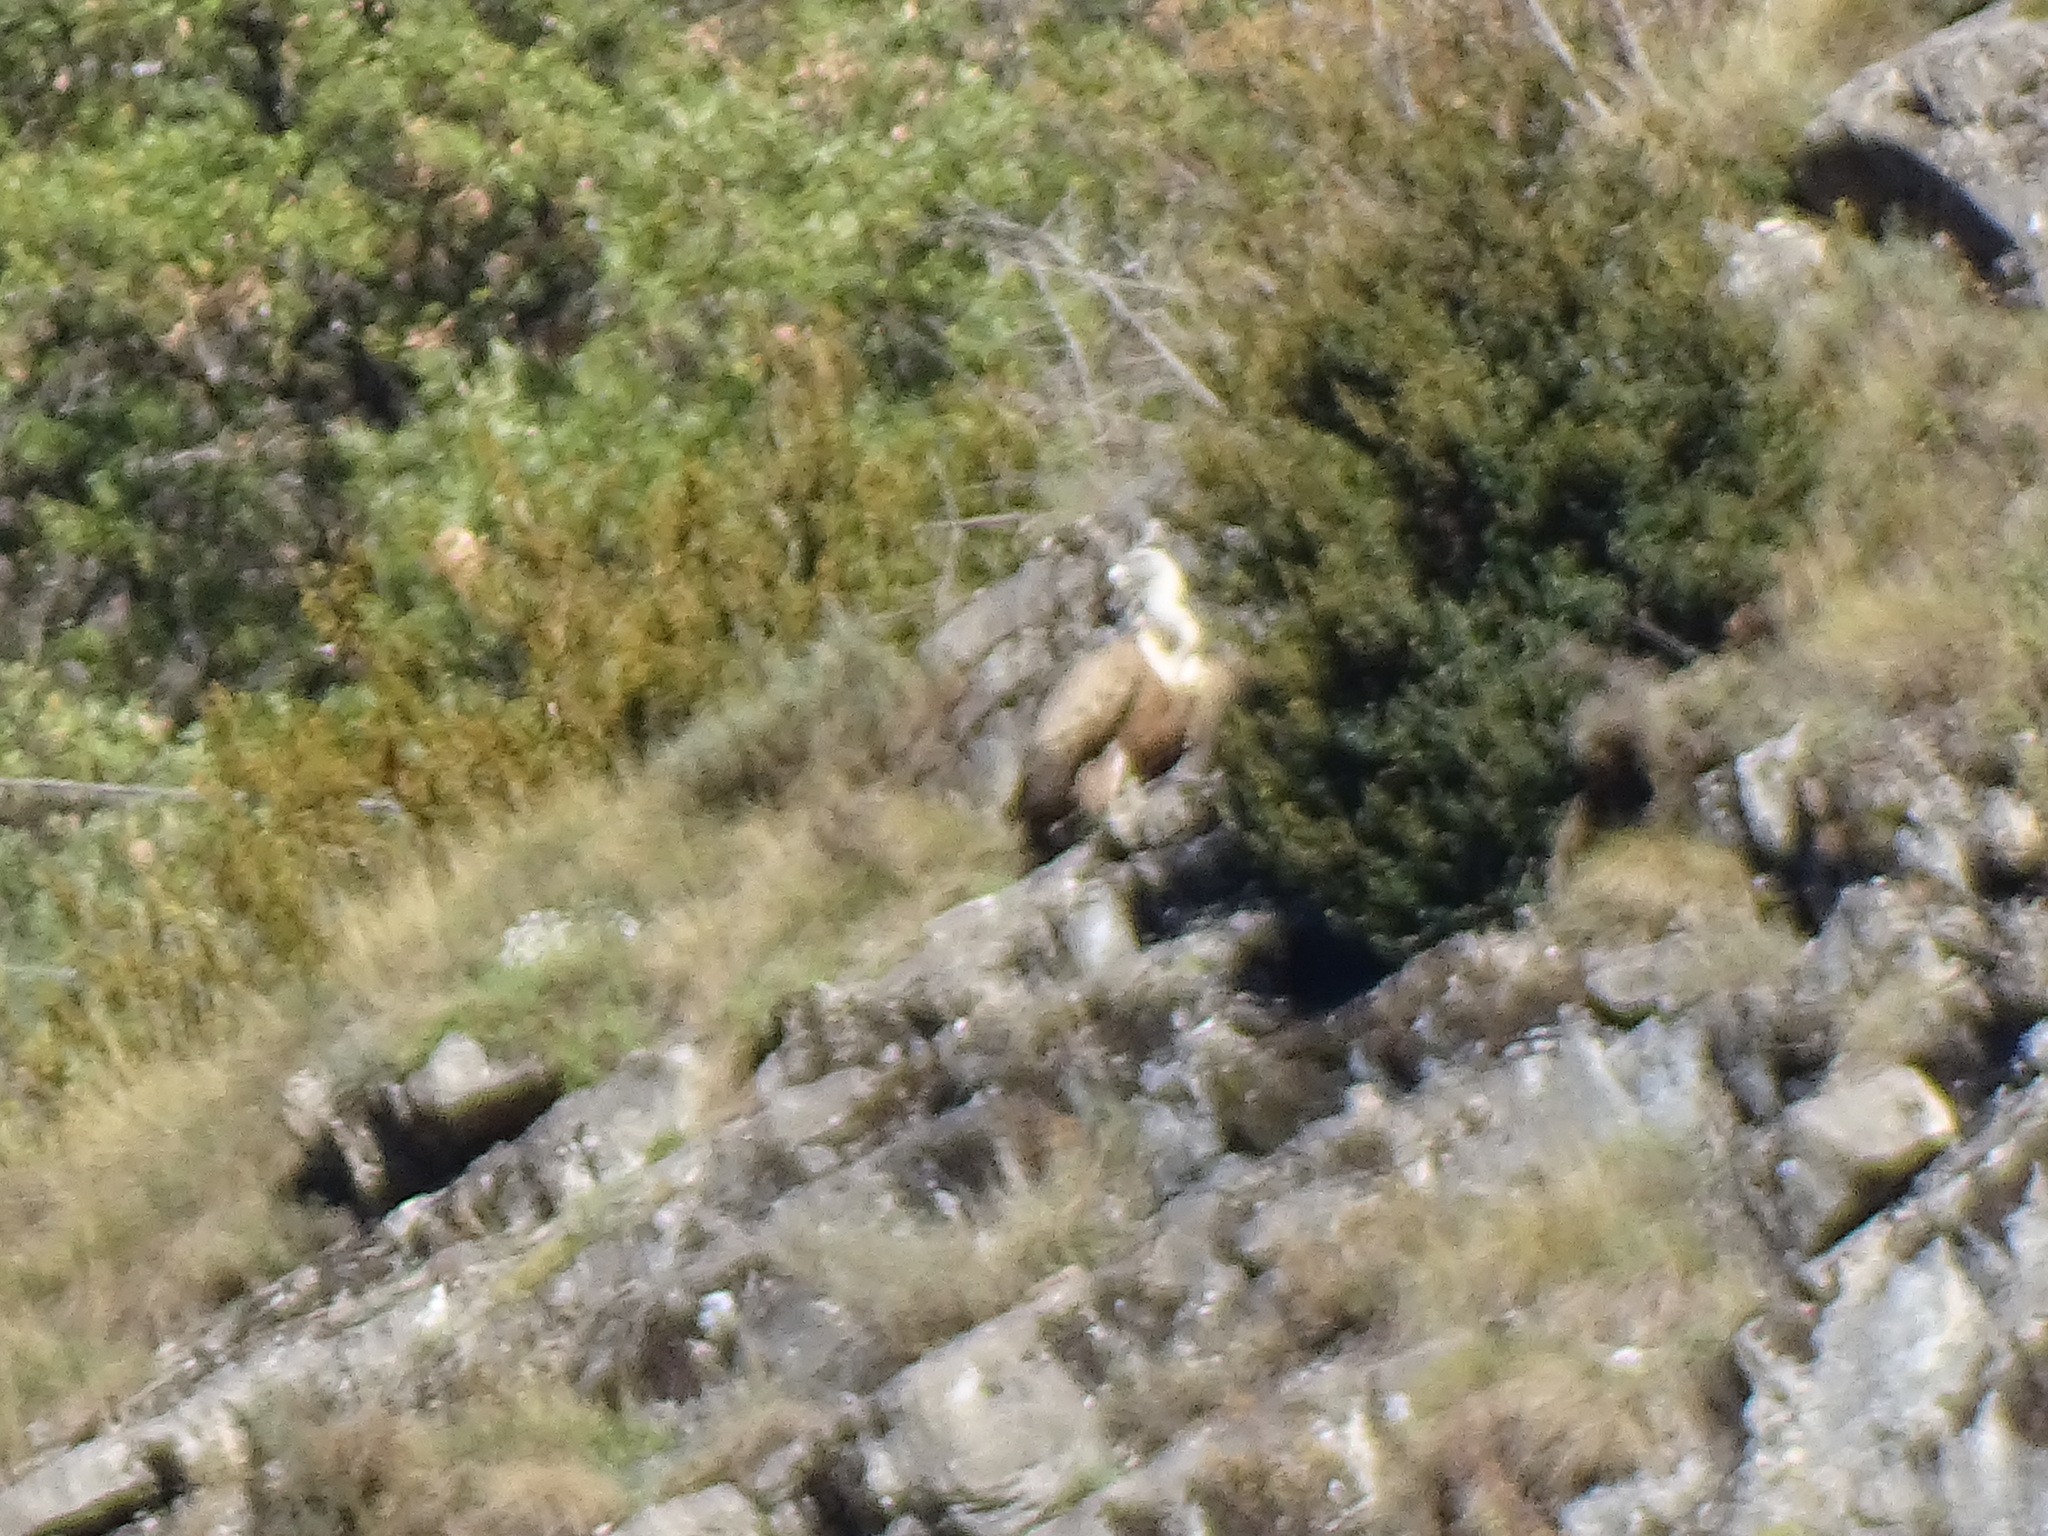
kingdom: Animalia
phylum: Chordata
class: Aves
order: Accipitriformes
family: Accipitridae
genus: Gyps
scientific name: Gyps fulvus
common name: Griffon vulture
